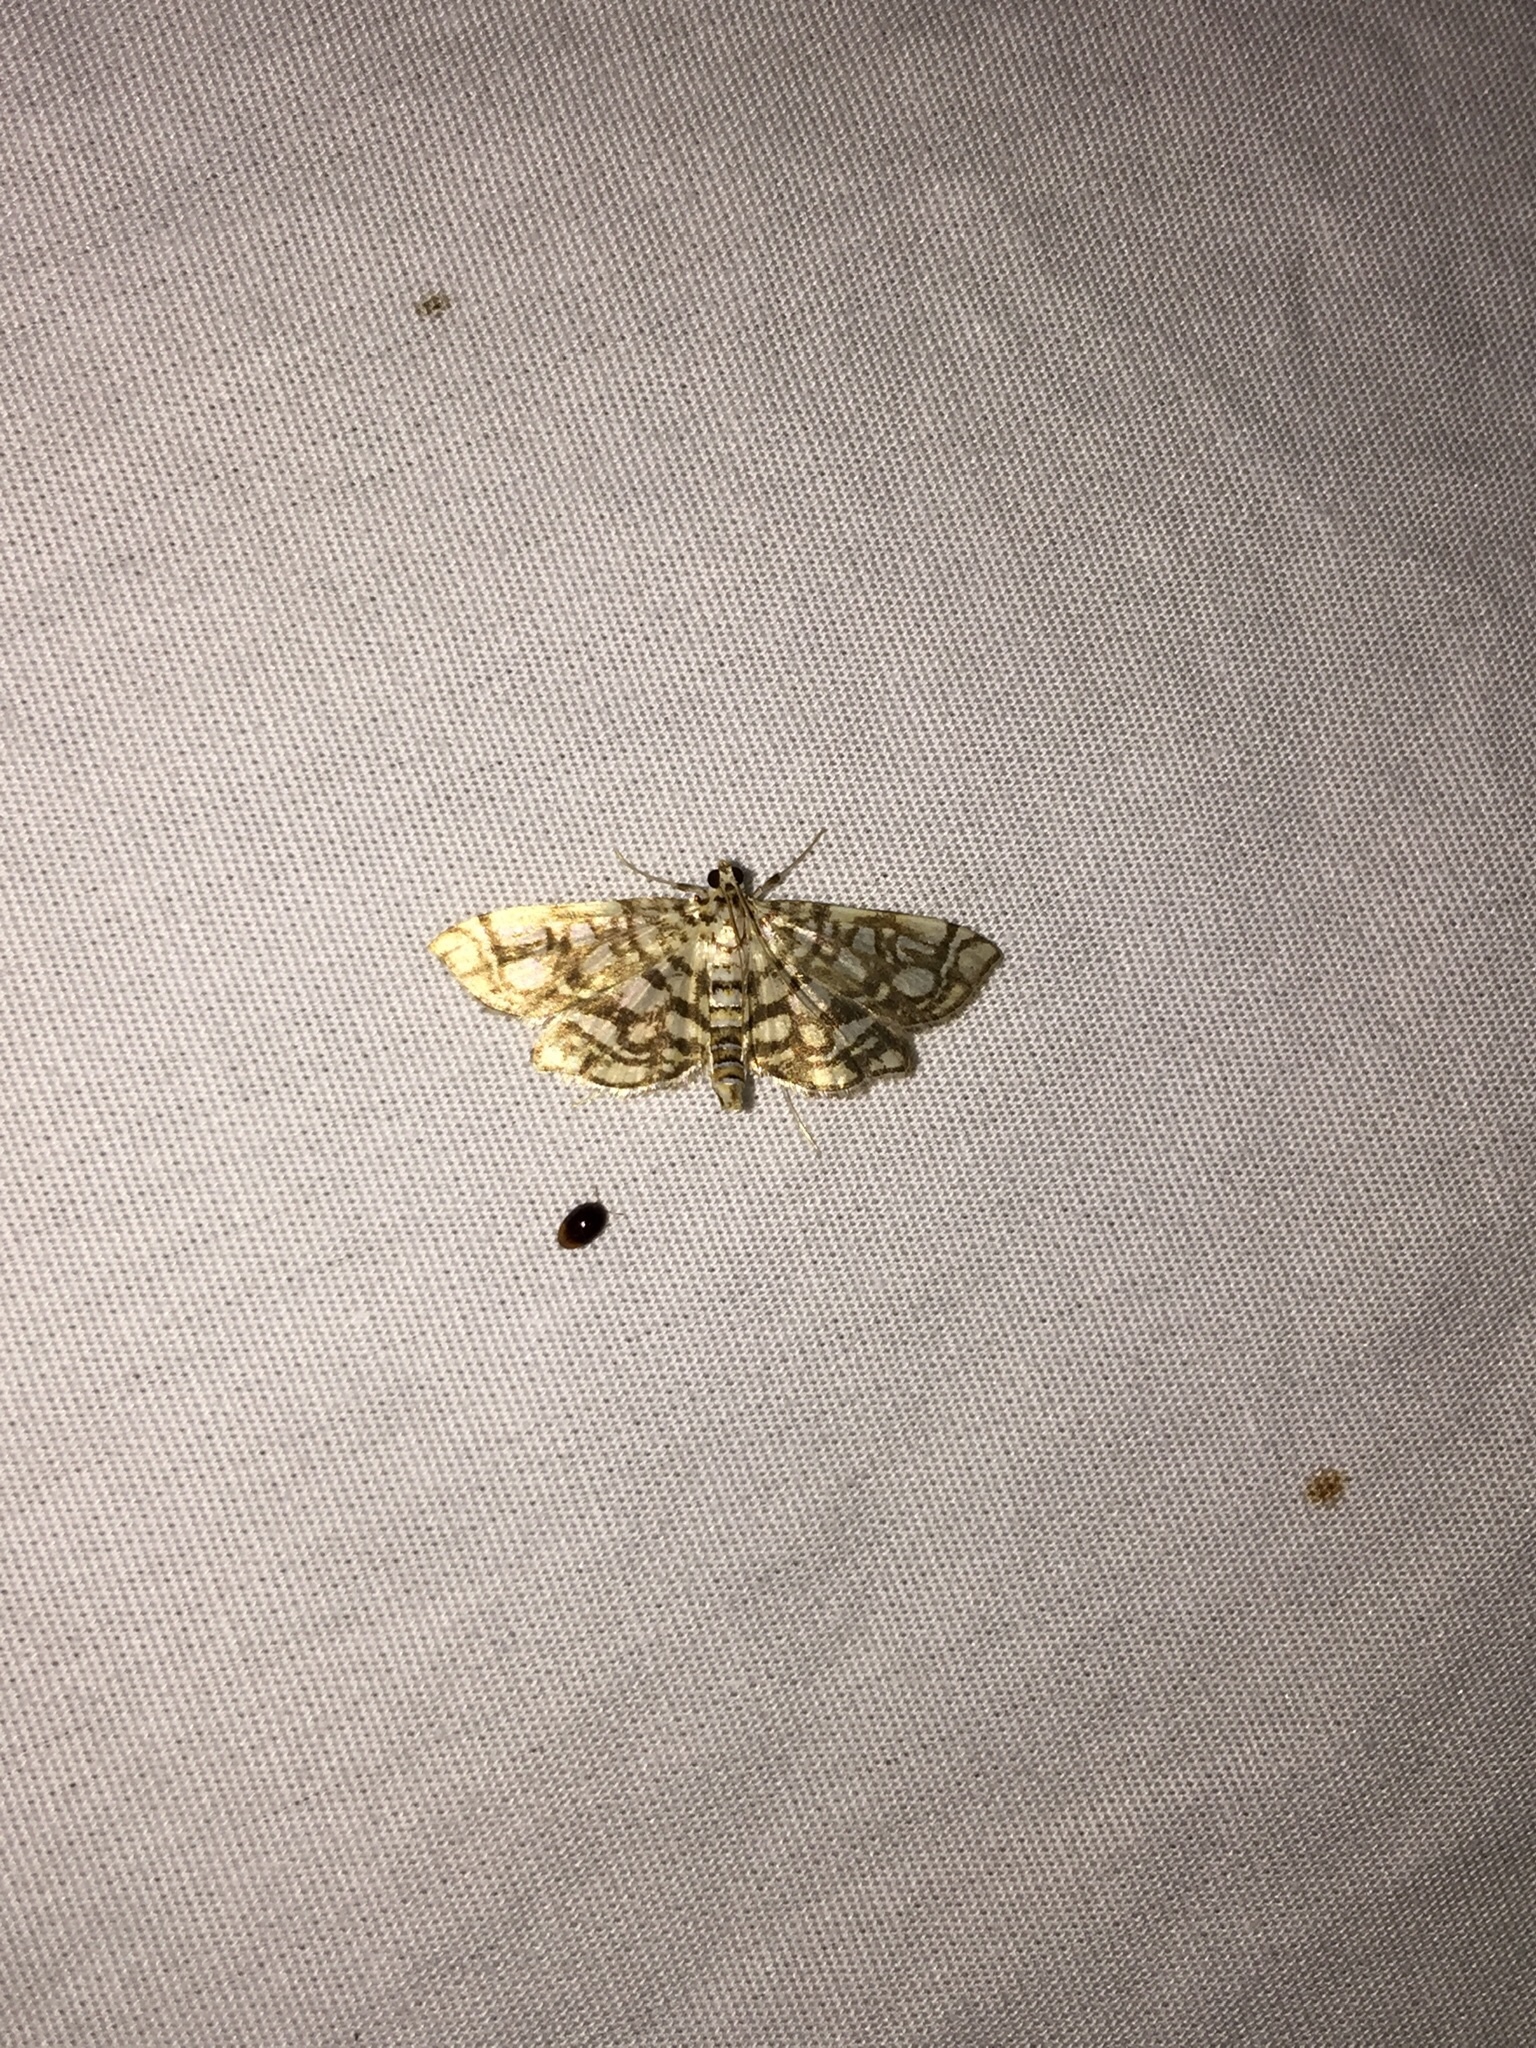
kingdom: Animalia
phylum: Arthropoda
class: Insecta
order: Lepidoptera
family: Crambidae
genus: Lygropia
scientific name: Lygropia rivulalis
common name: Bog lygropia moth
